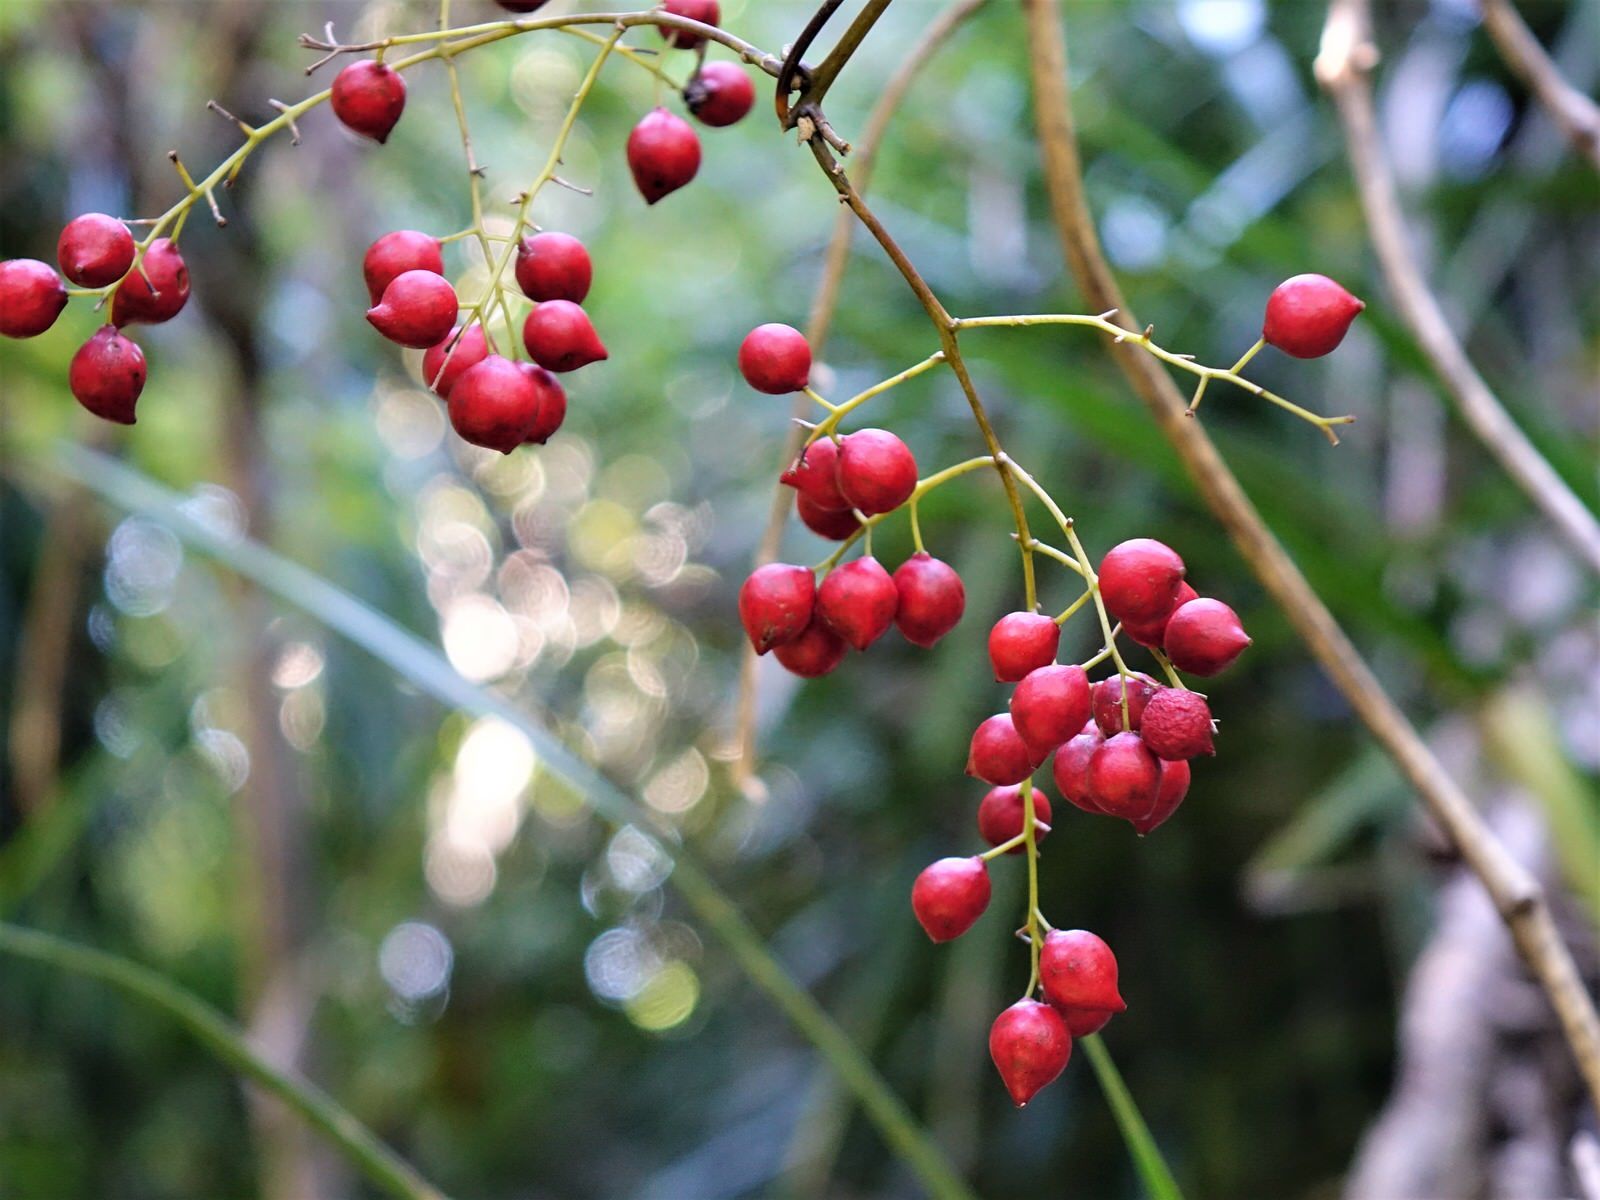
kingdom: Plantae
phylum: Tracheophyta
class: Liliopsida
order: Liliales
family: Ripogonaceae
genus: Ripogonum
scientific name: Ripogonum scandens
